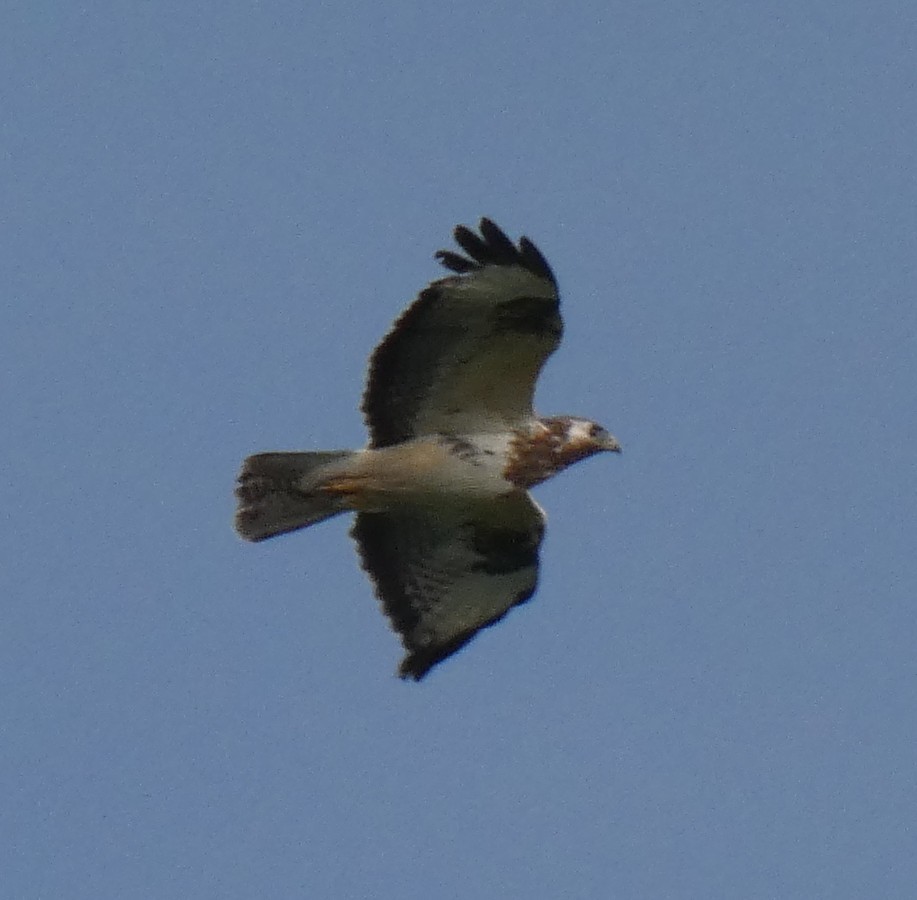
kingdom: Animalia
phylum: Chordata
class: Aves
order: Accipitriformes
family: Accipitridae
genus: Buteo
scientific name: Buteo buteo
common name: Common buzzard
